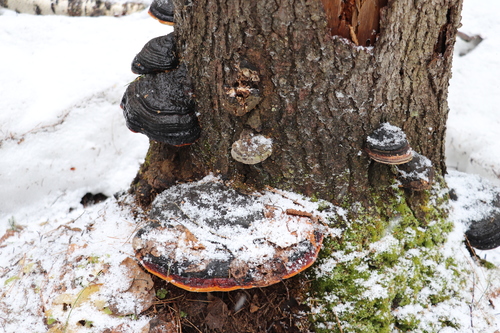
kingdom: Fungi
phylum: Basidiomycota
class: Agaricomycetes
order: Polyporales
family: Fomitopsidaceae
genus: Fomitopsis
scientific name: Fomitopsis pinicola
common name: Red-belted bracket
